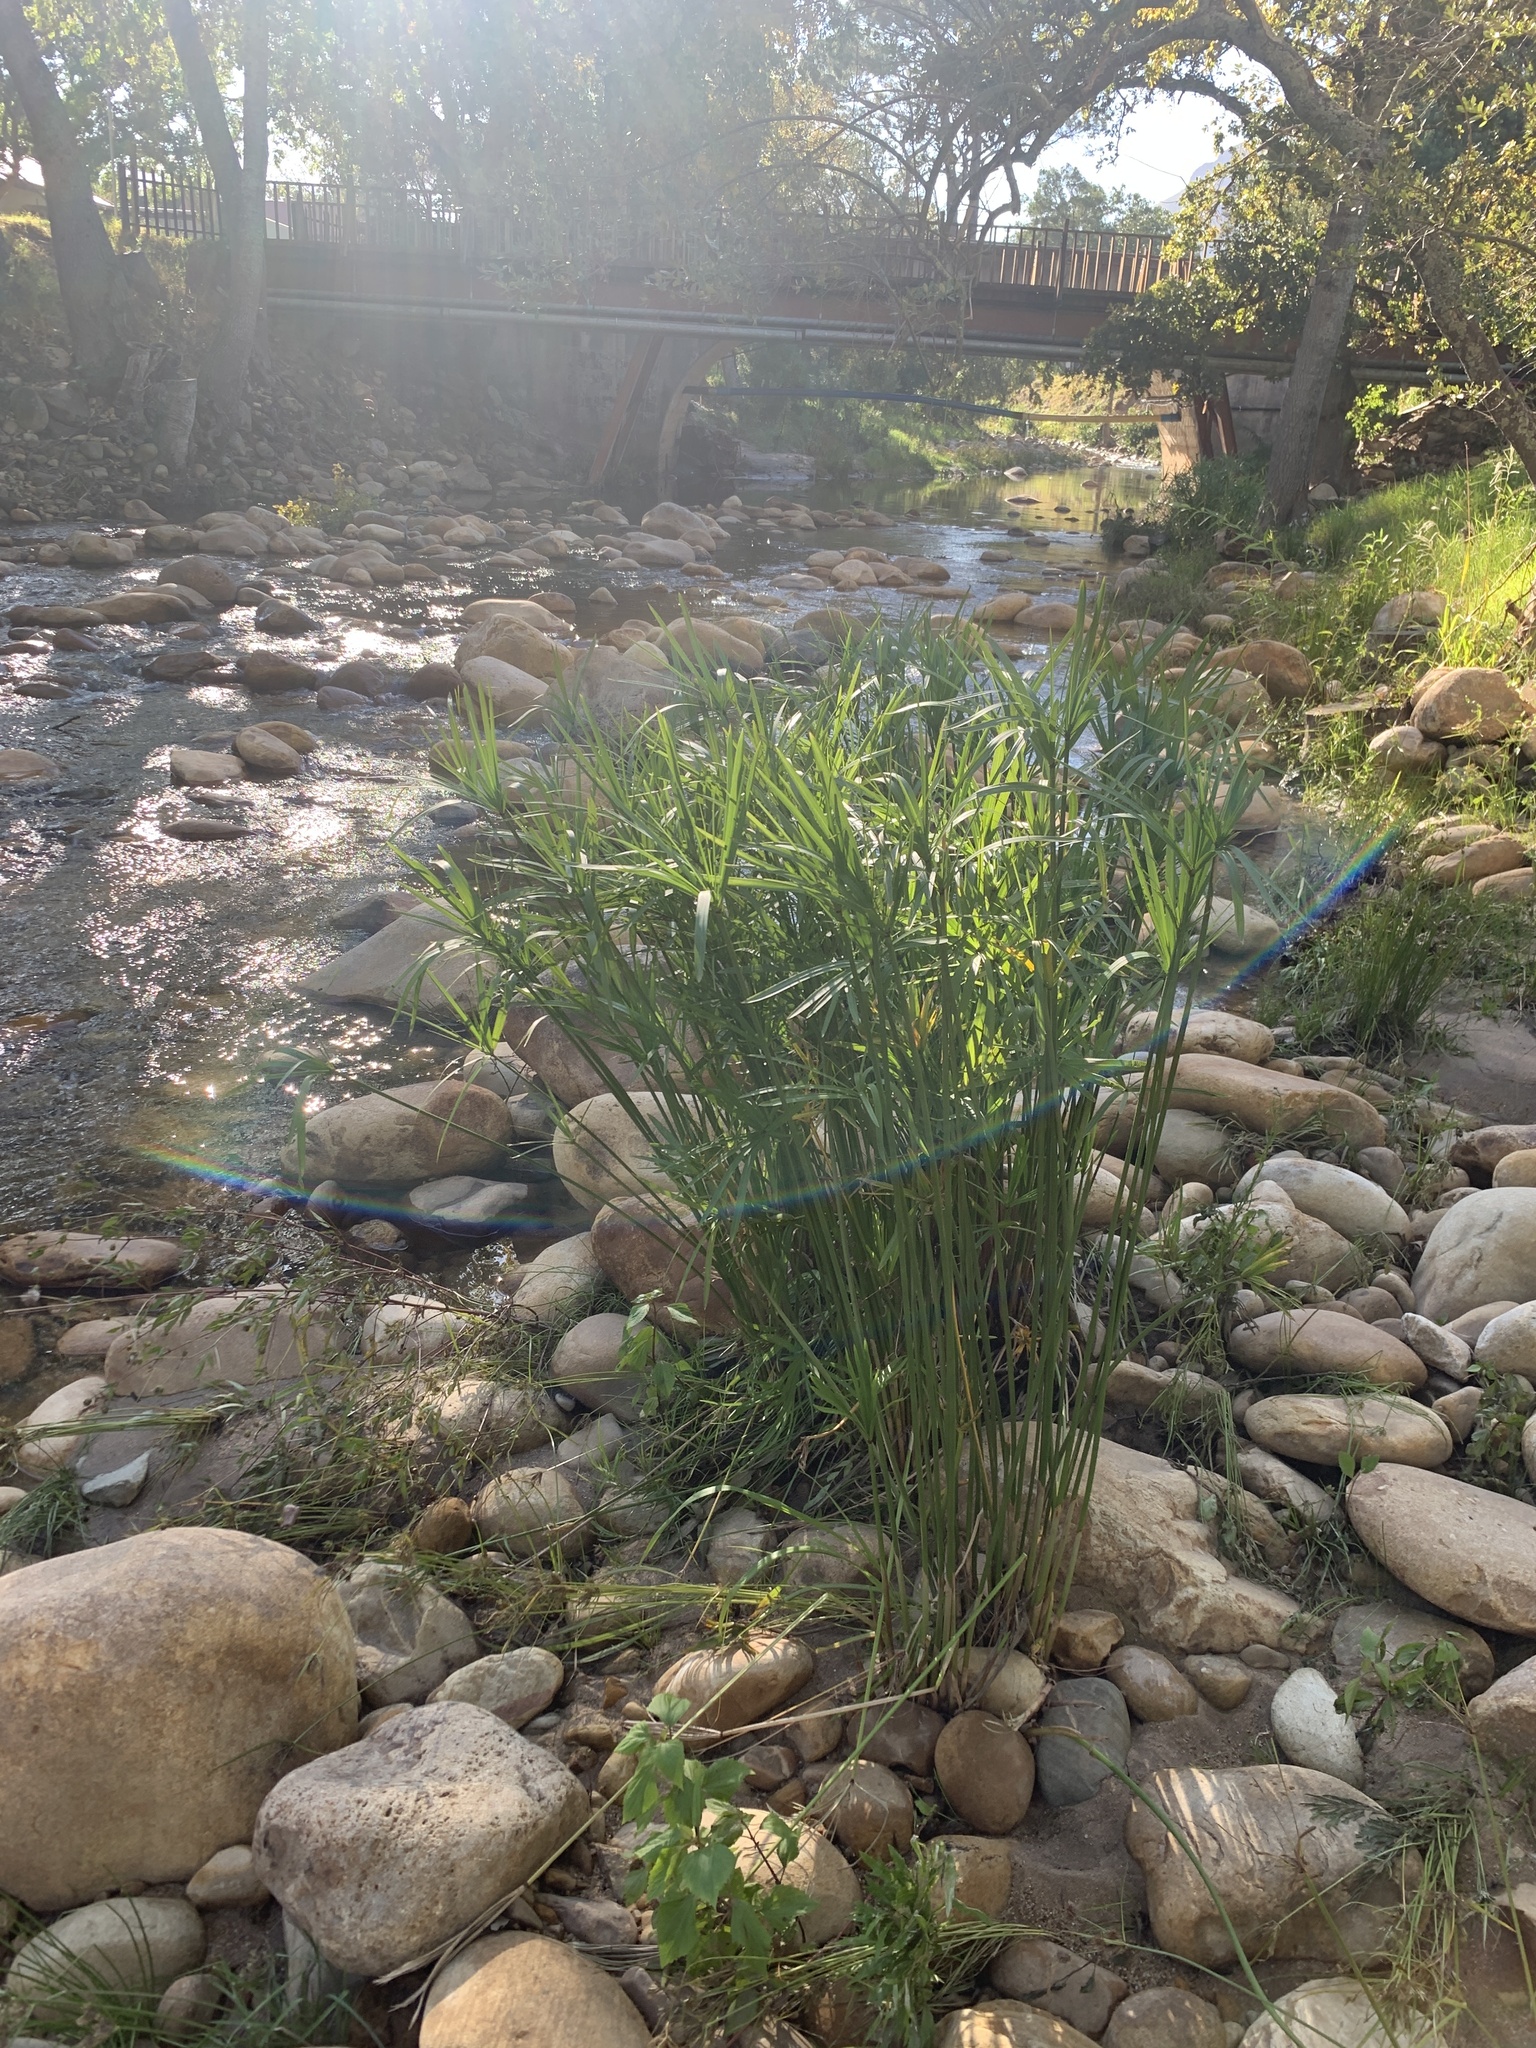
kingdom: Plantae
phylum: Tracheophyta
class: Liliopsida
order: Poales
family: Cyperaceae
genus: Cyperus
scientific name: Cyperus textilis
